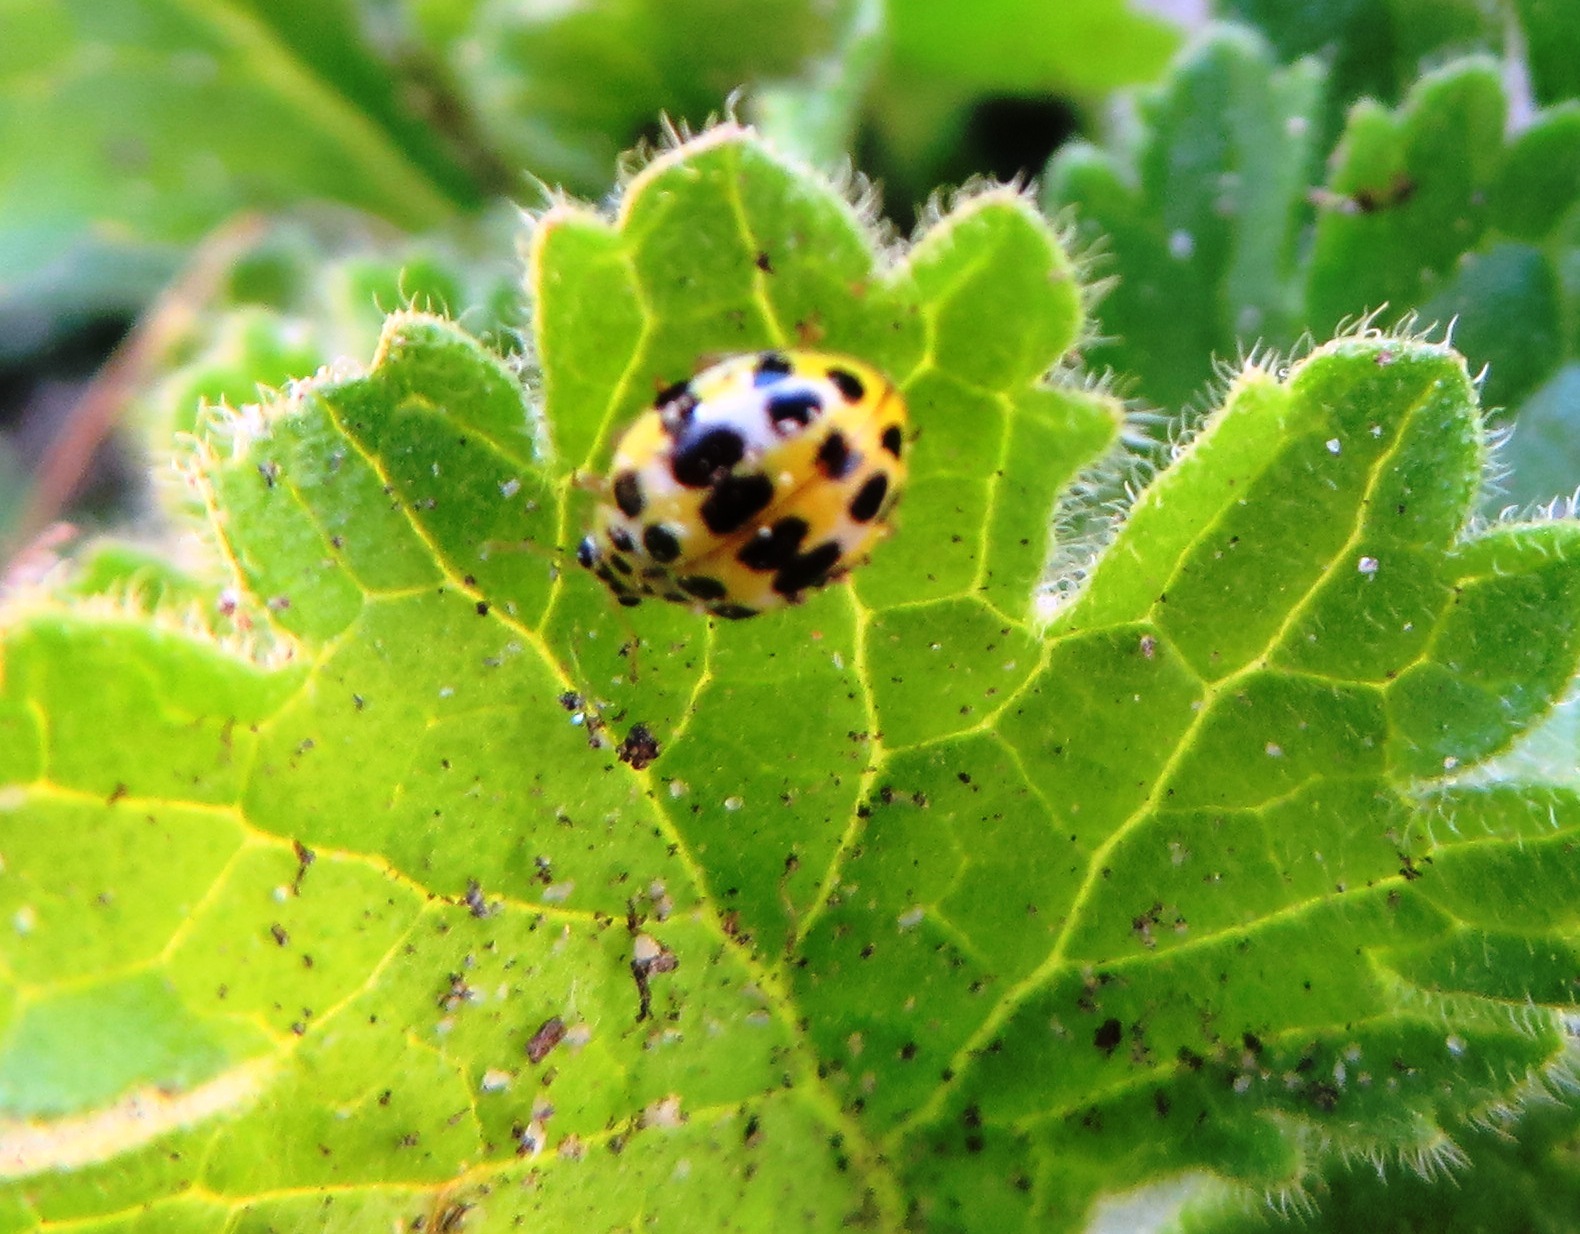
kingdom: Animalia
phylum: Arthropoda
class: Insecta
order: Coleoptera
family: Coccinellidae
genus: Psyllobora
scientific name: Psyllobora variegata
